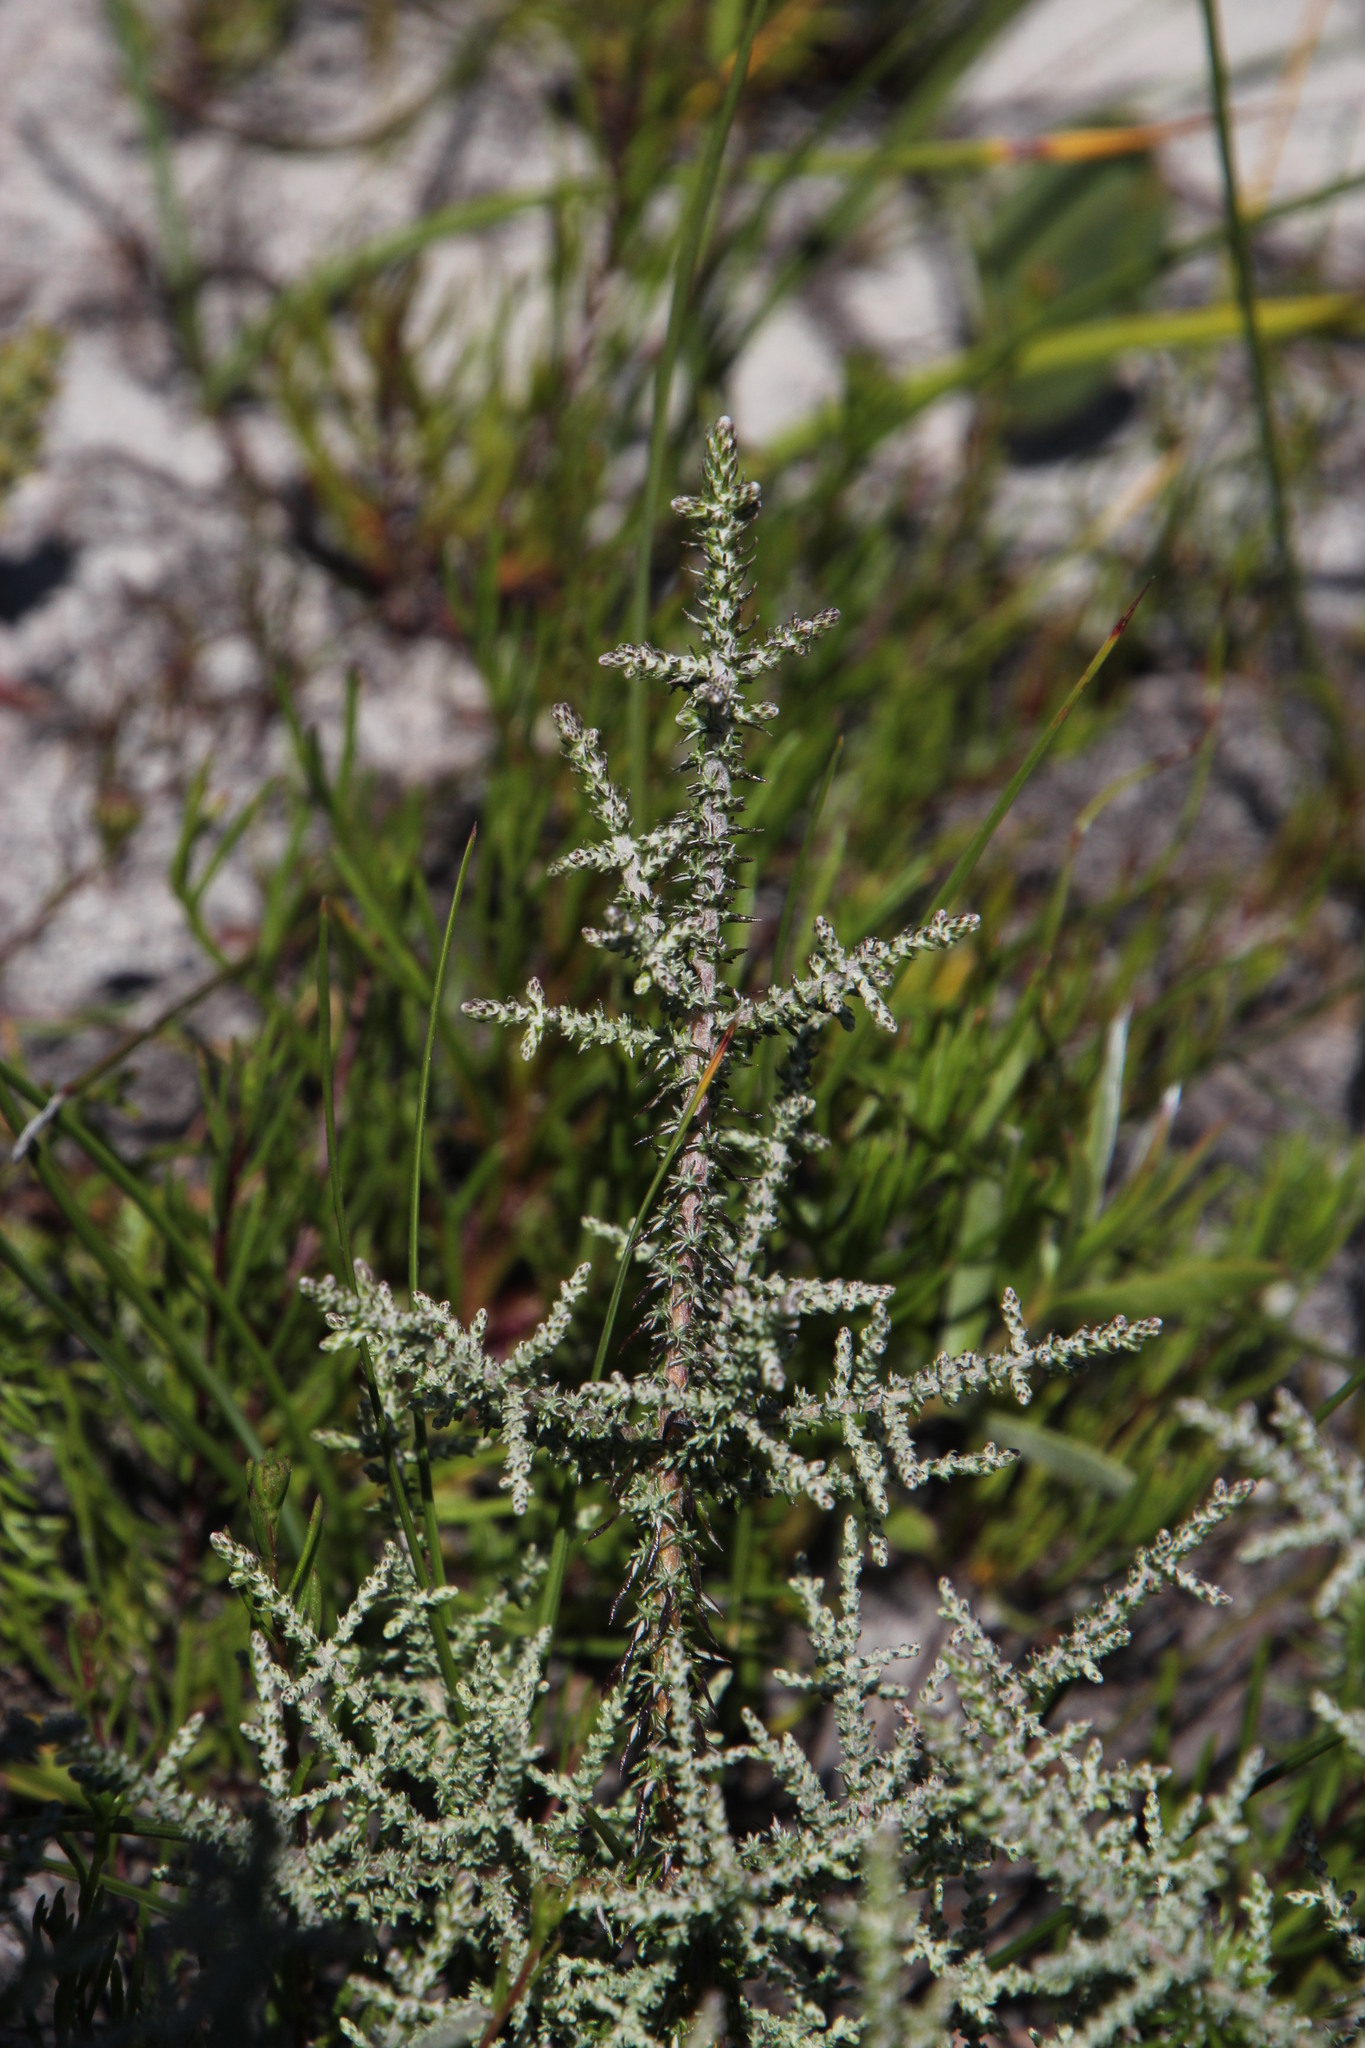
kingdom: Plantae
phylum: Tracheophyta
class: Magnoliopsida
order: Asterales
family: Asteraceae
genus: Seriphium
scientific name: Seriphium plumosum
